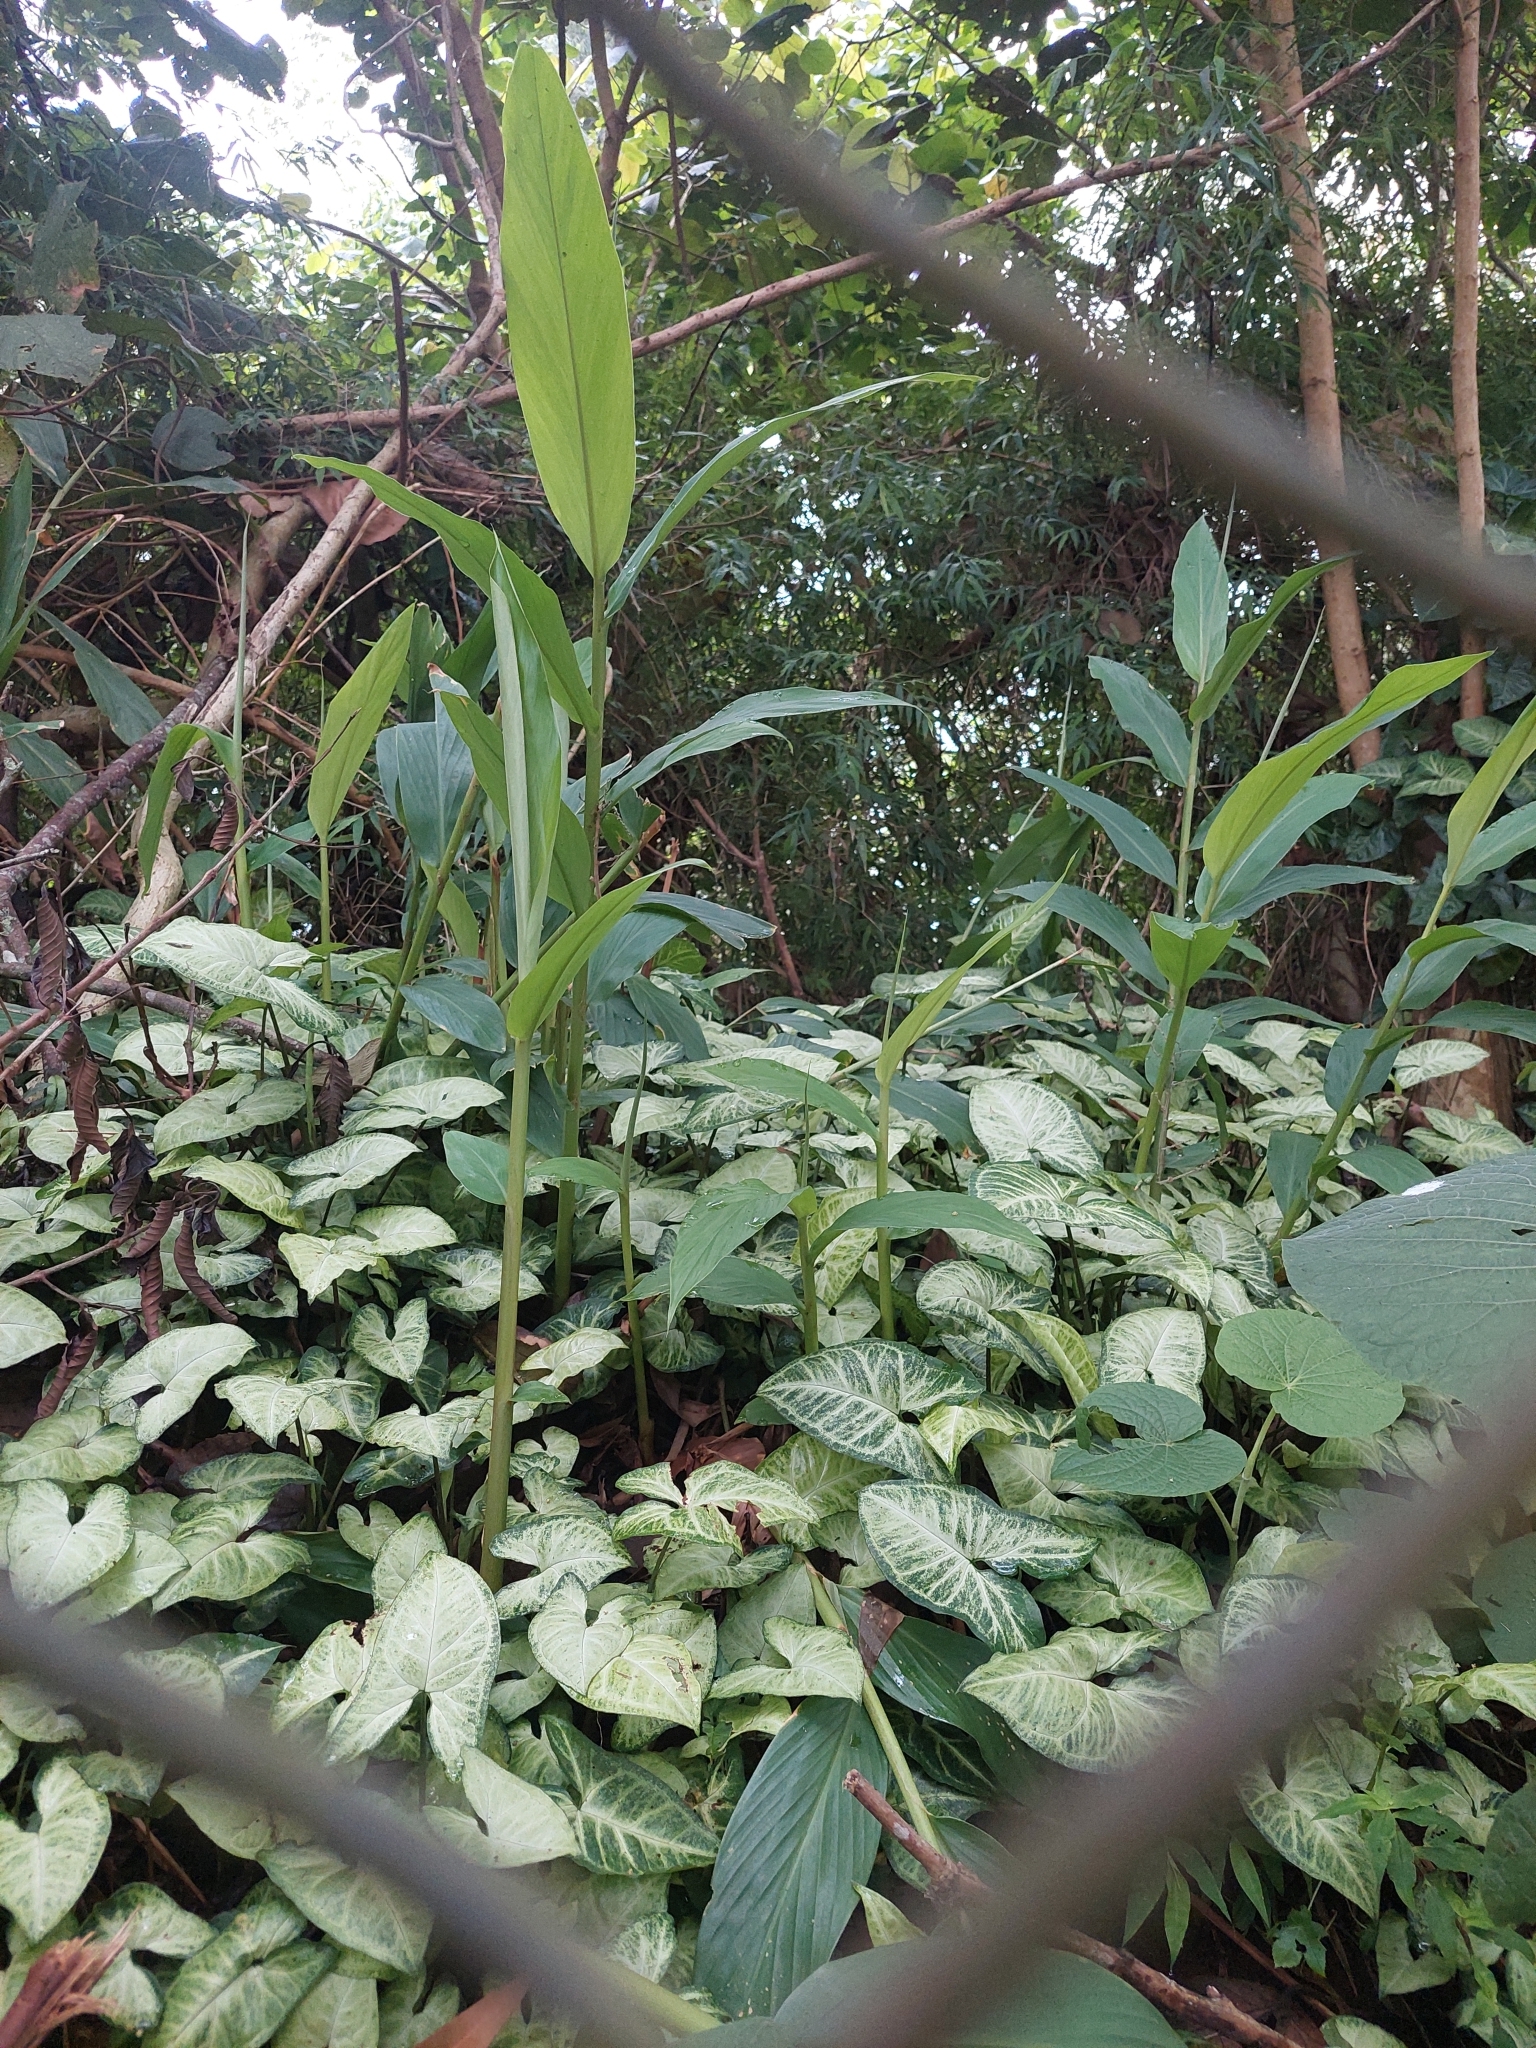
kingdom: Plantae
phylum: Tracheophyta
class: Liliopsida
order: Zingiberales
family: Zingiberaceae
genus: Hedychium
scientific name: Hedychium coronarium
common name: White garland-lily
